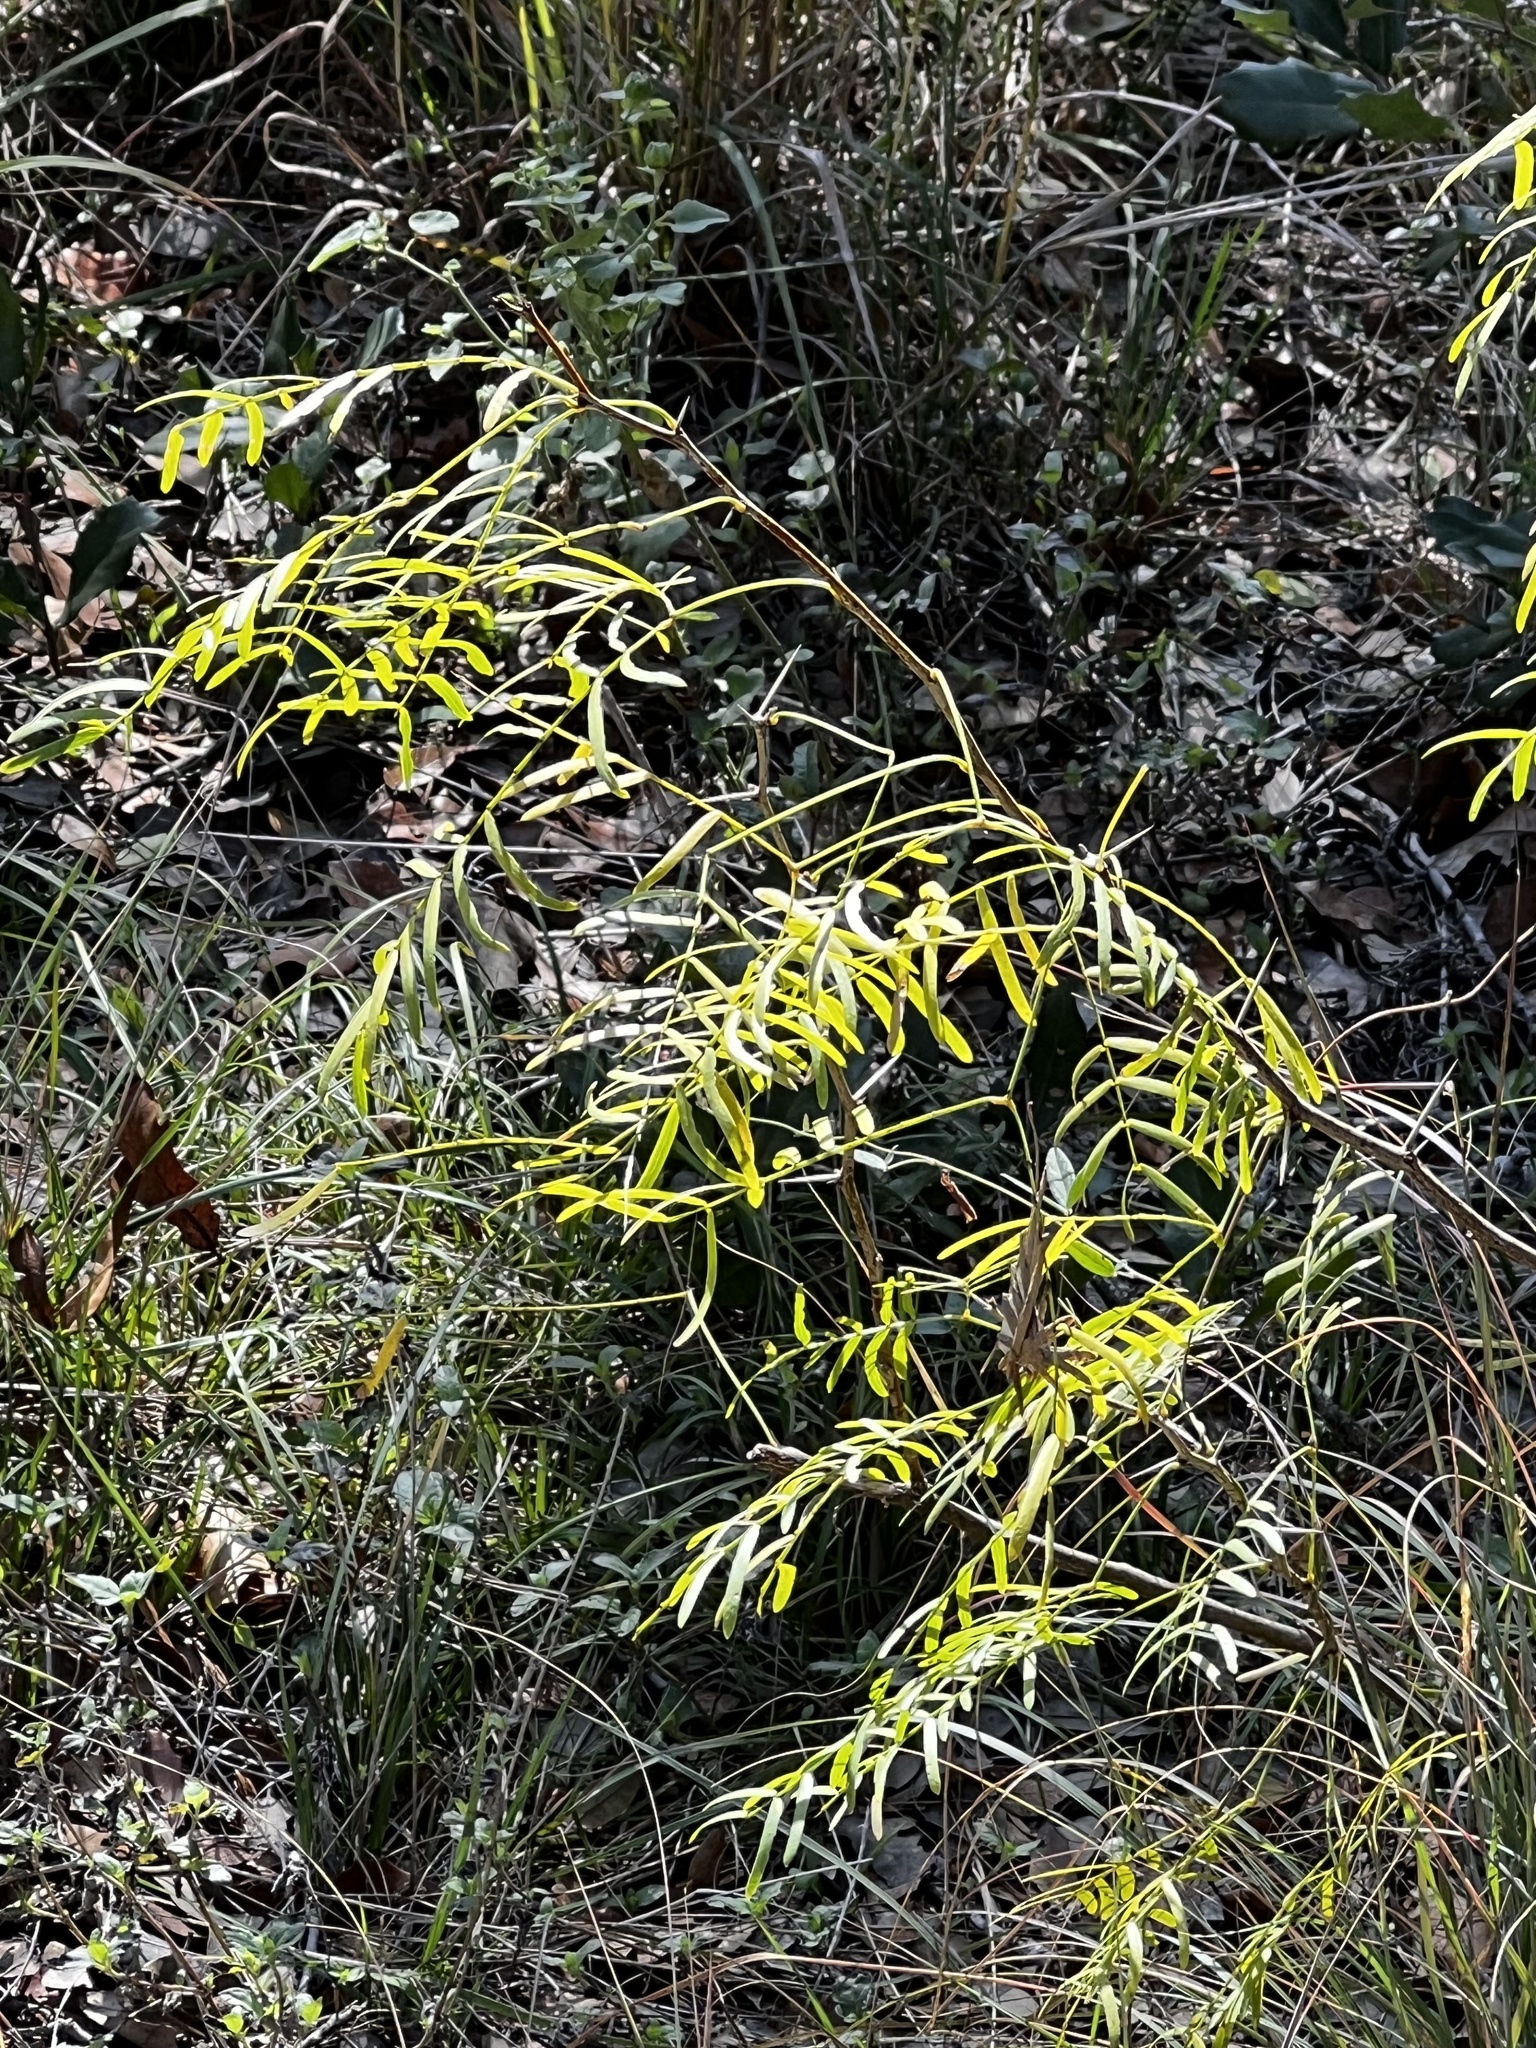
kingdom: Plantae
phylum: Tracheophyta
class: Magnoliopsida
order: Fabales
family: Fabaceae
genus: Prosopis
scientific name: Prosopis glandulosa
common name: Honey mesquite
